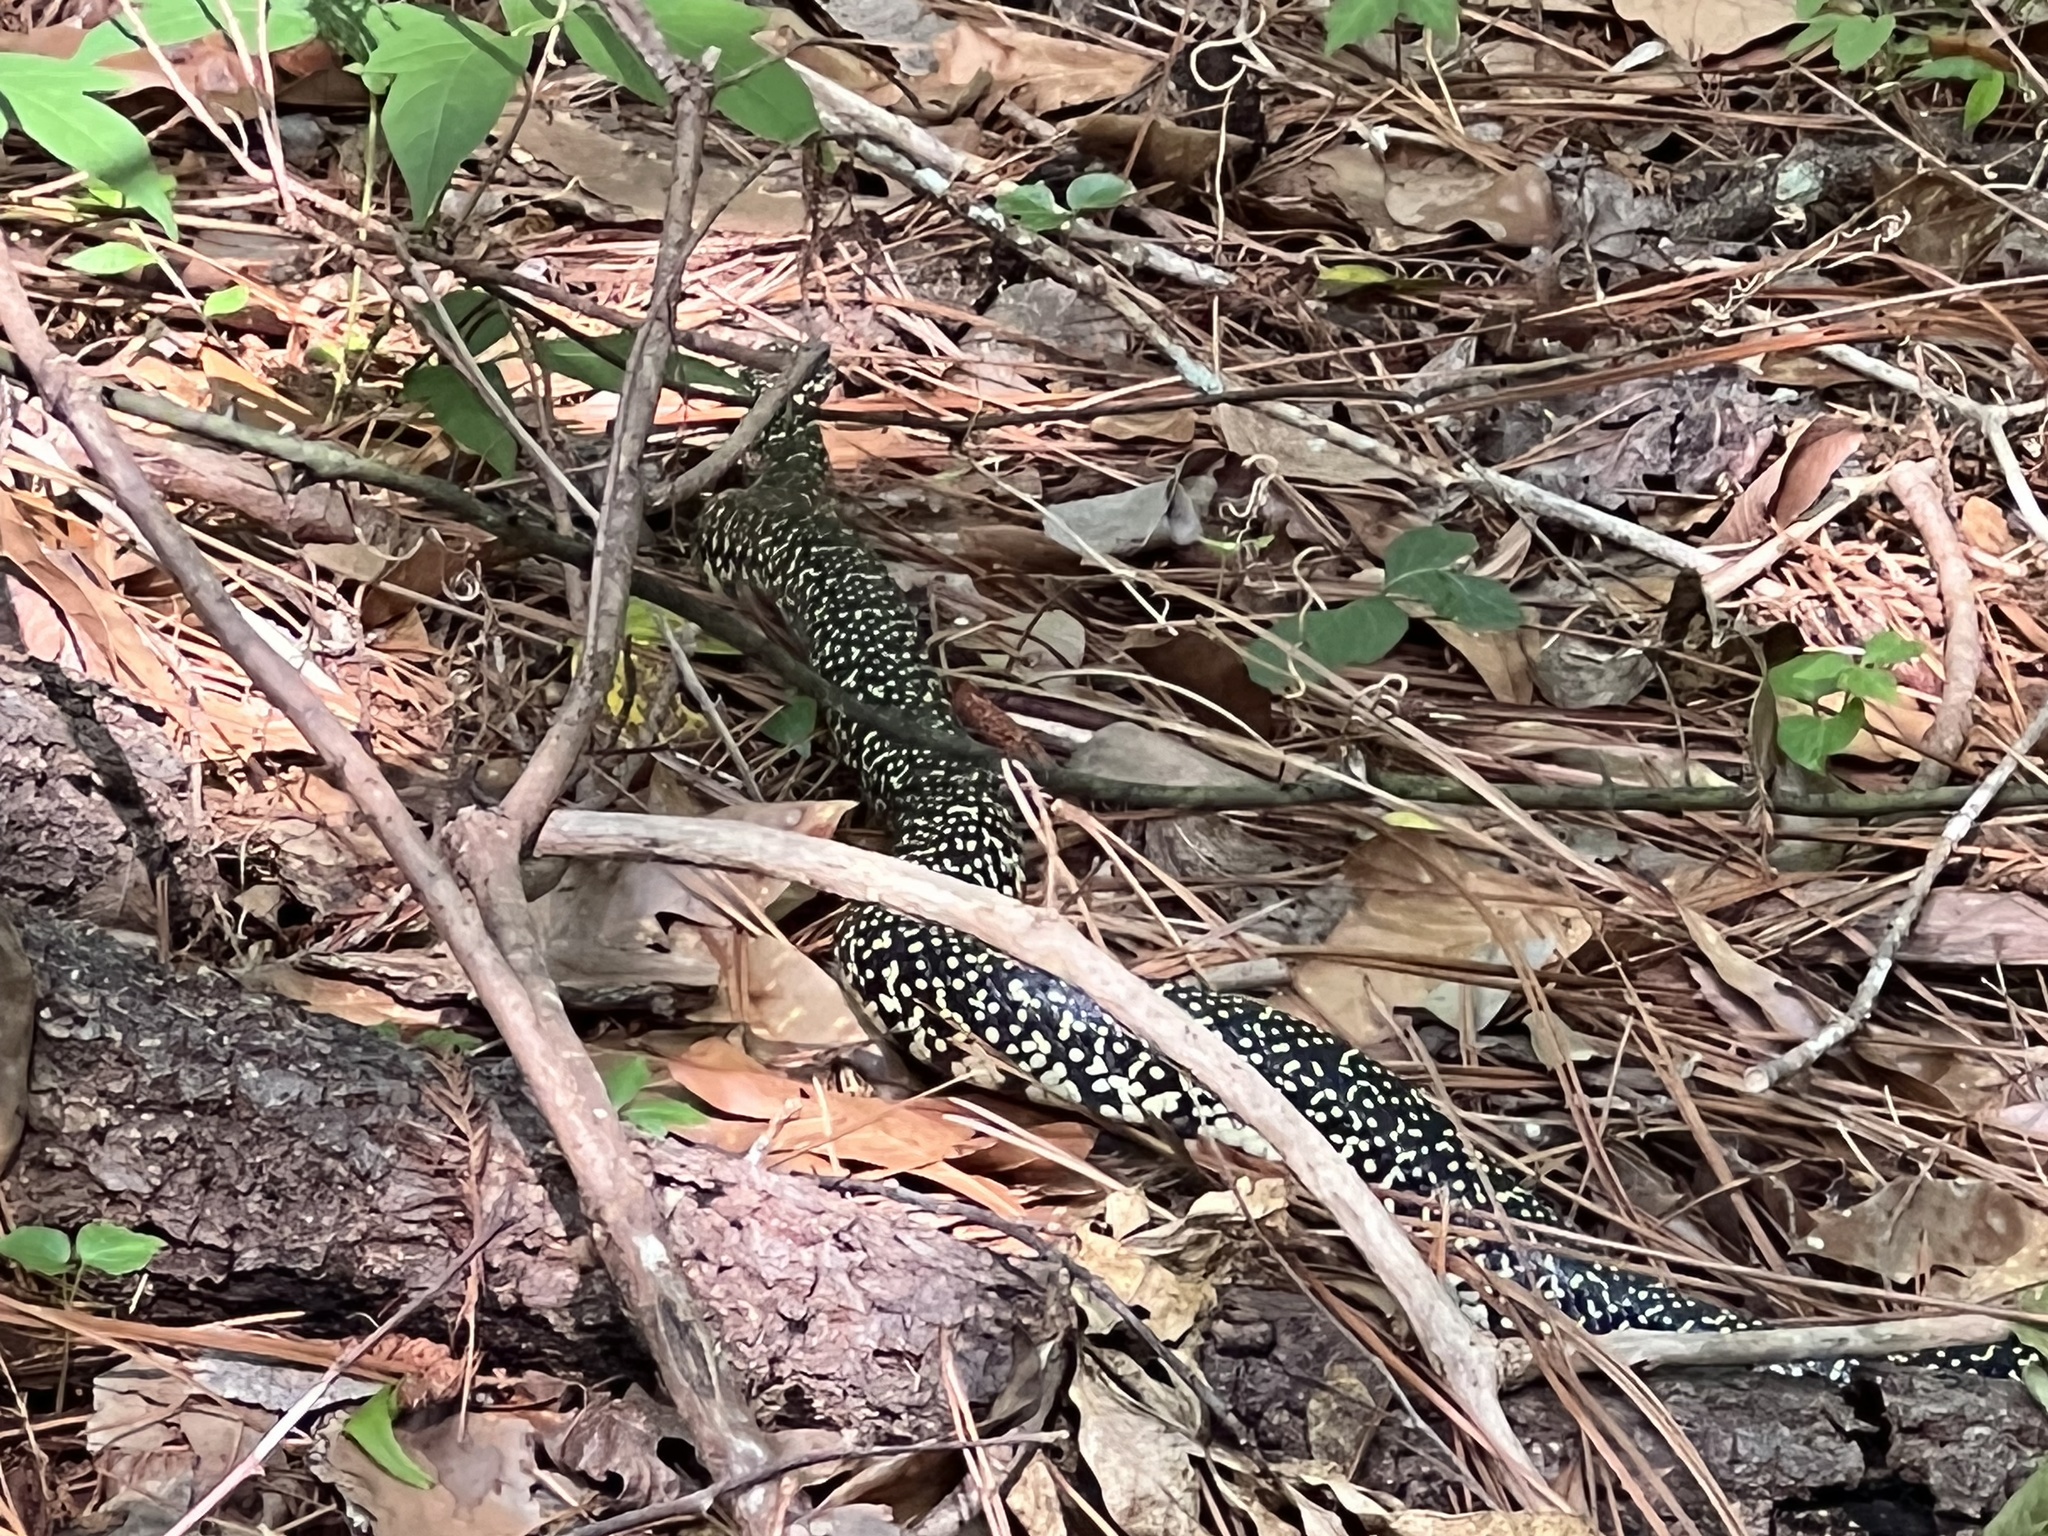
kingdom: Animalia
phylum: Chordata
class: Squamata
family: Colubridae
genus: Lampropeltis
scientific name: Lampropeltis holbrooki
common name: Speckled kingsnake
